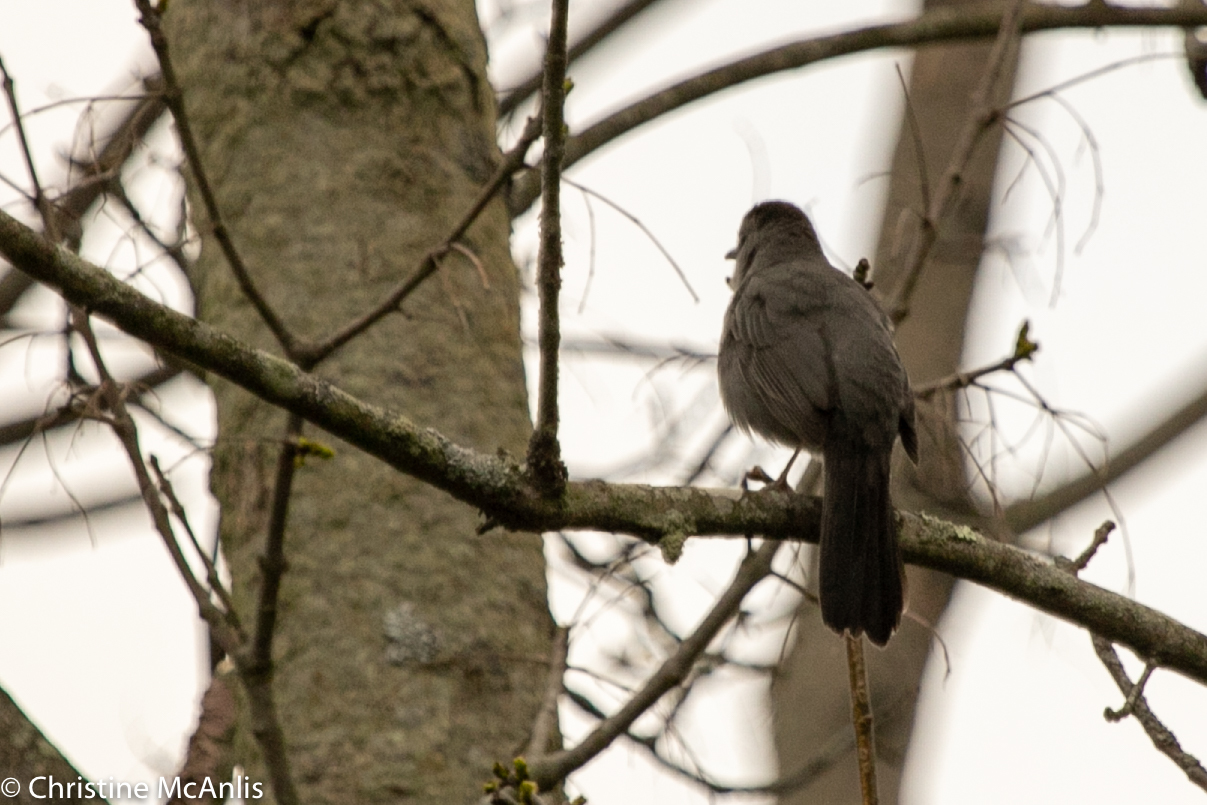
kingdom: Animalia
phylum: Chordata
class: Aves
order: Passeriformes
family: Mimidae
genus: Dumetella
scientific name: Dumetella carolinensis
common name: Gray catbird
